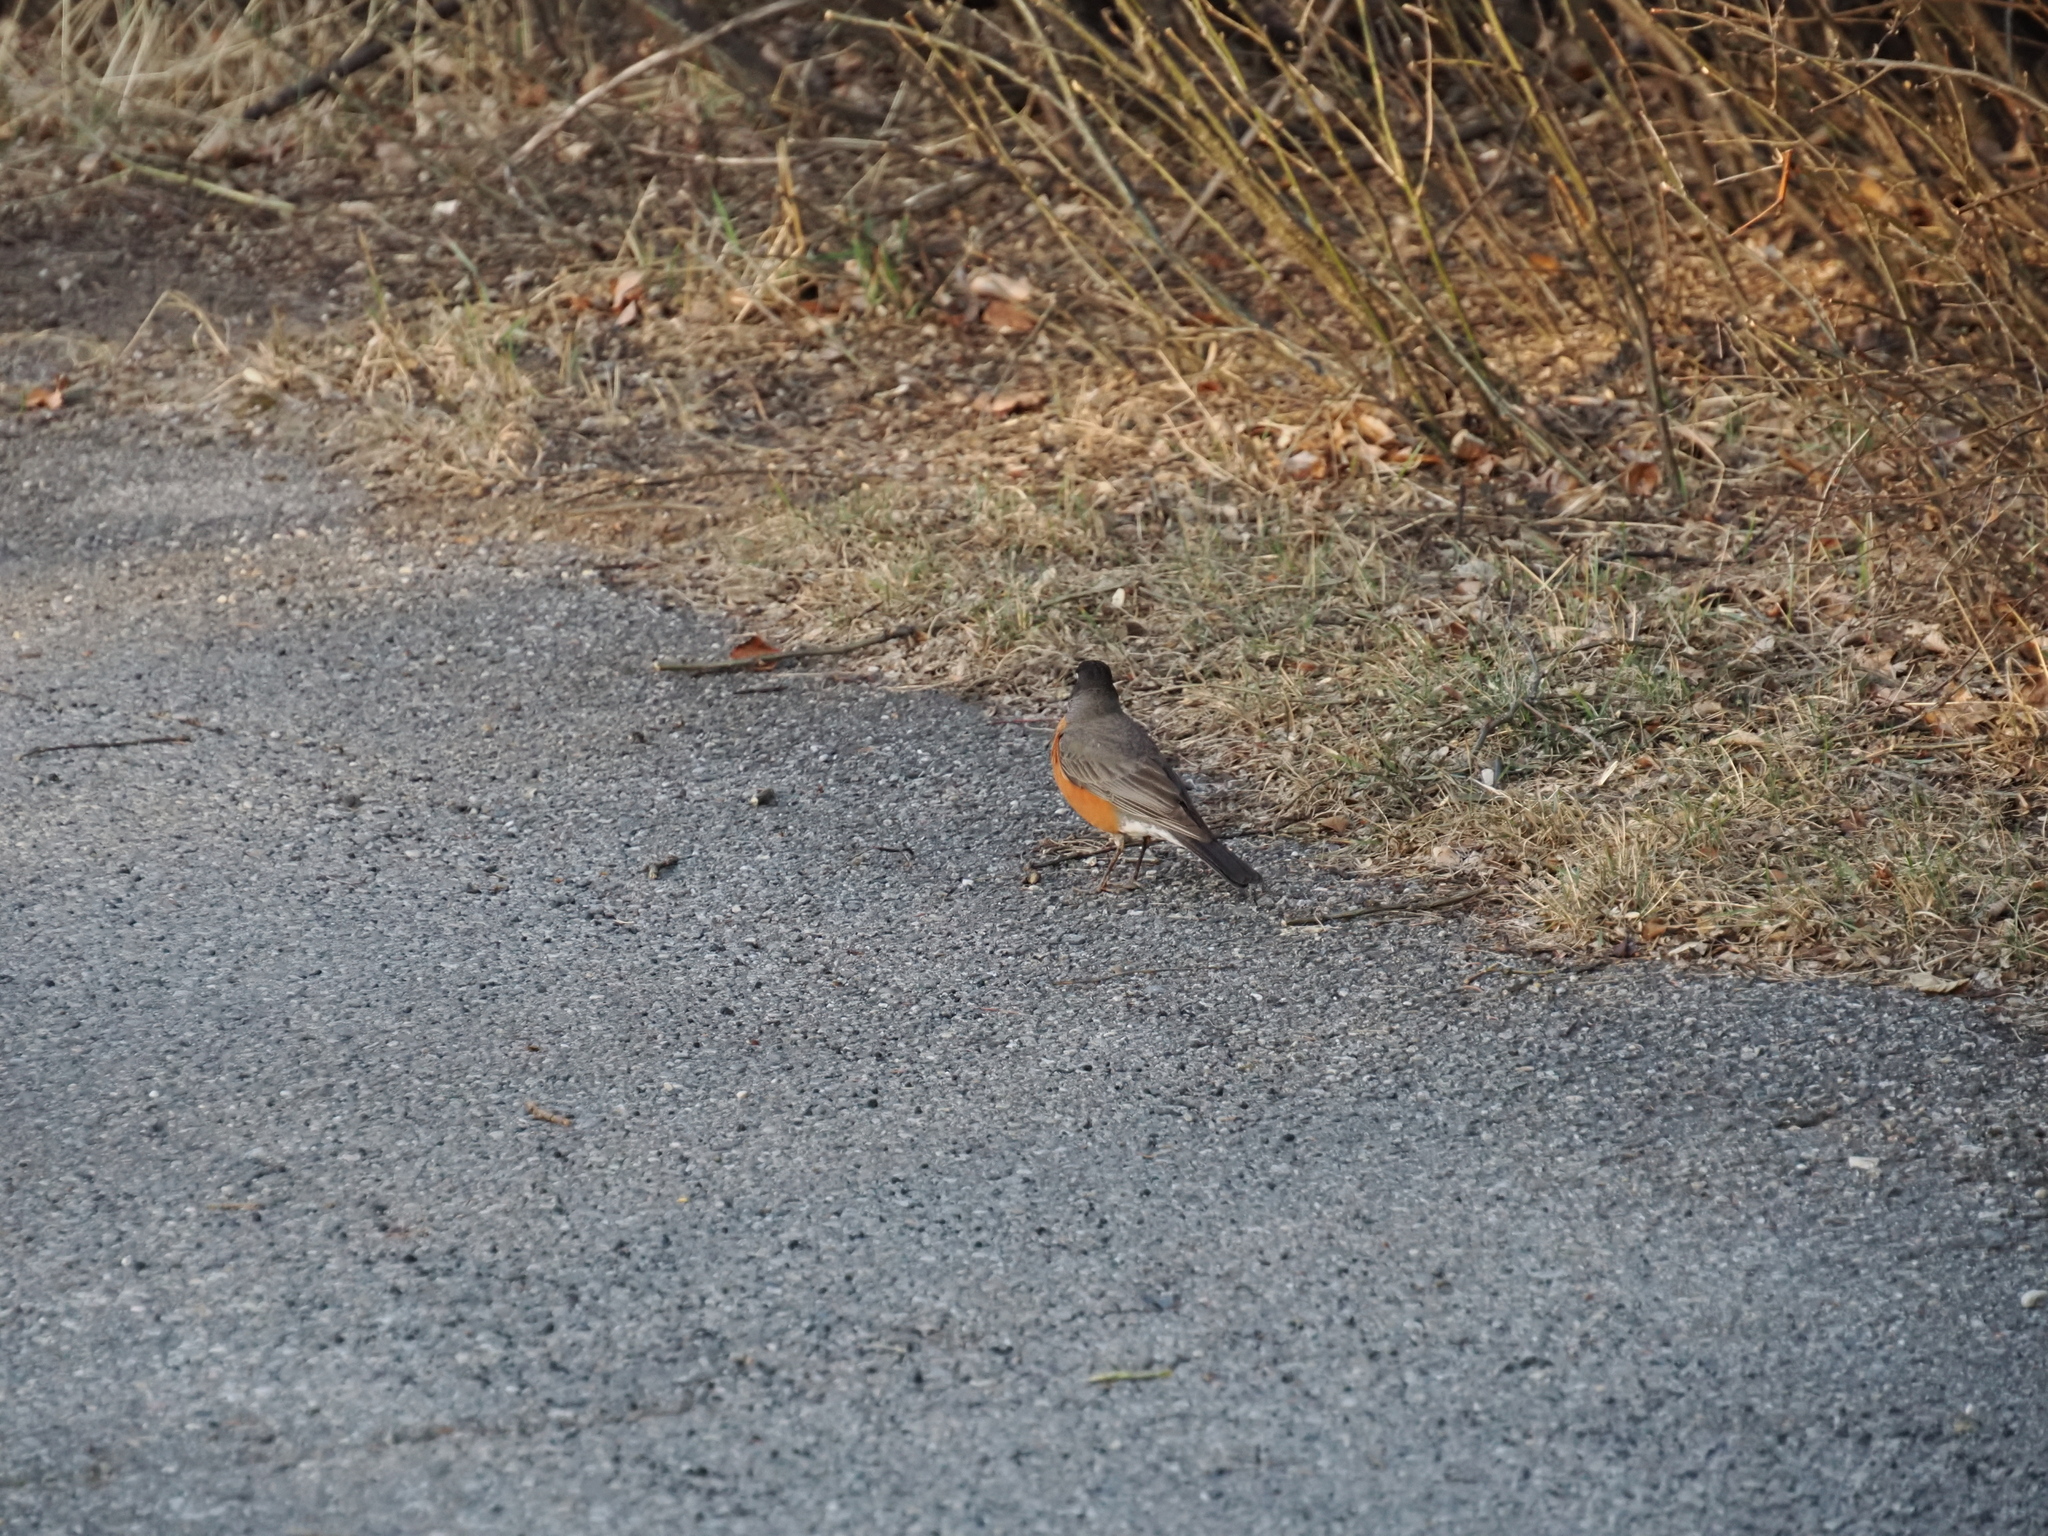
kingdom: Animalia
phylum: Chordata
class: Aves
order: Passeriformes
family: Turdidae
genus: Turdus
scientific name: Turdus migratorius
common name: American robin
